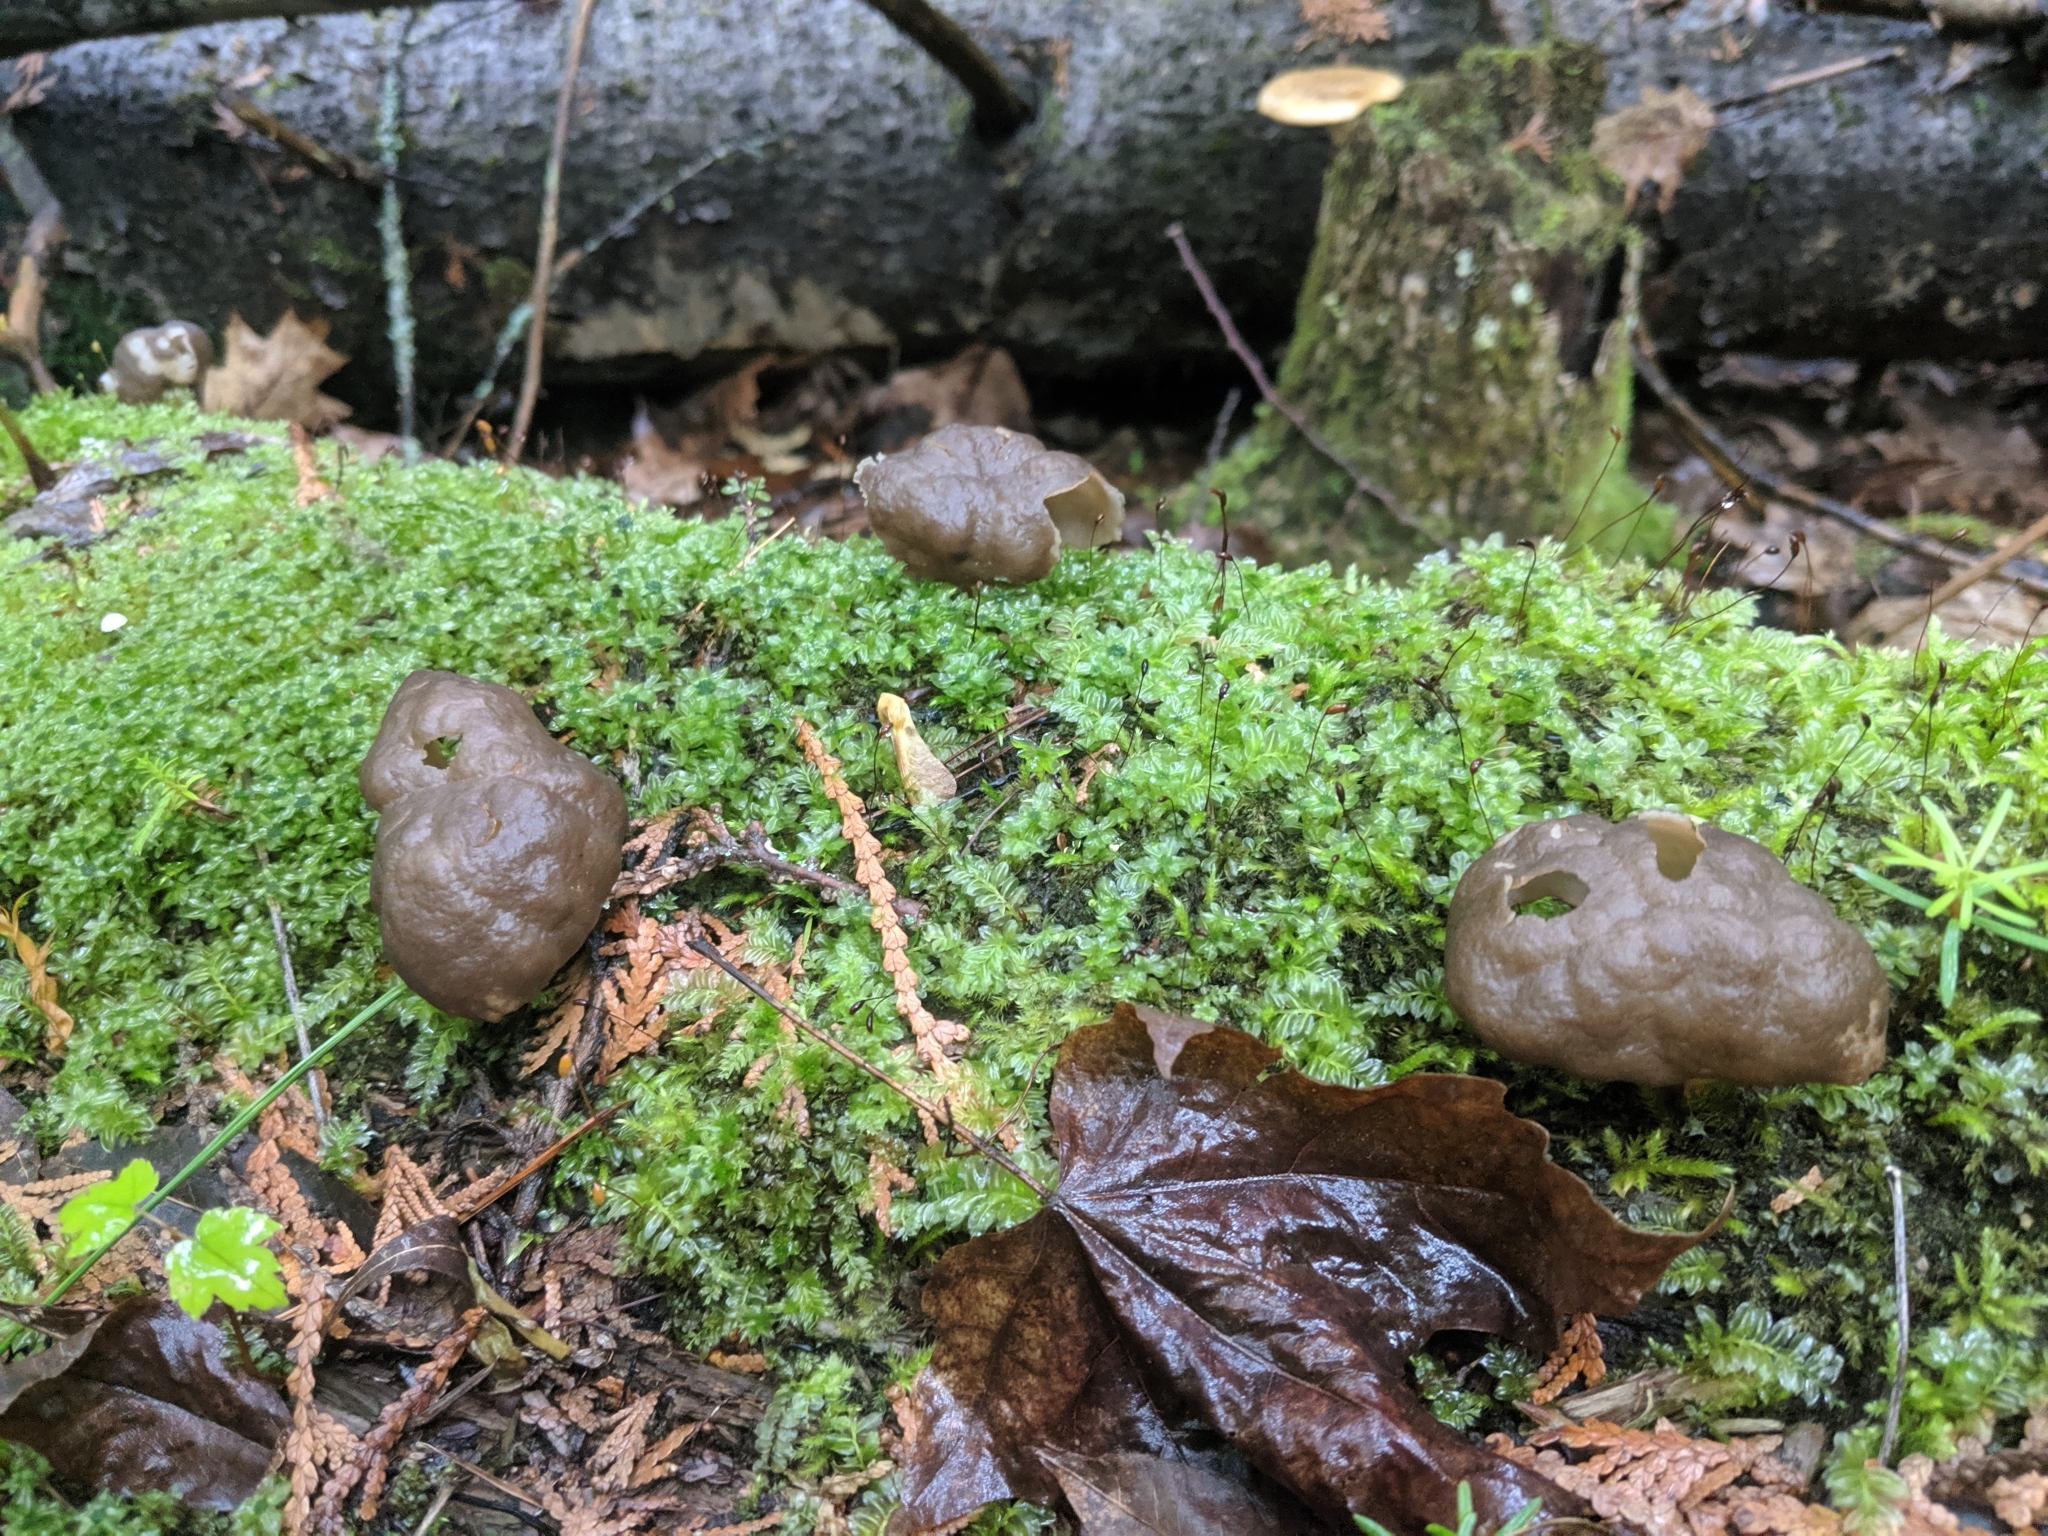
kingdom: Fungi
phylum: Ascomycota
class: Pezizomycetes
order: Pezizales
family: Discinaceae
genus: Gyromitra
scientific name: Gyromitra sphaerospora
